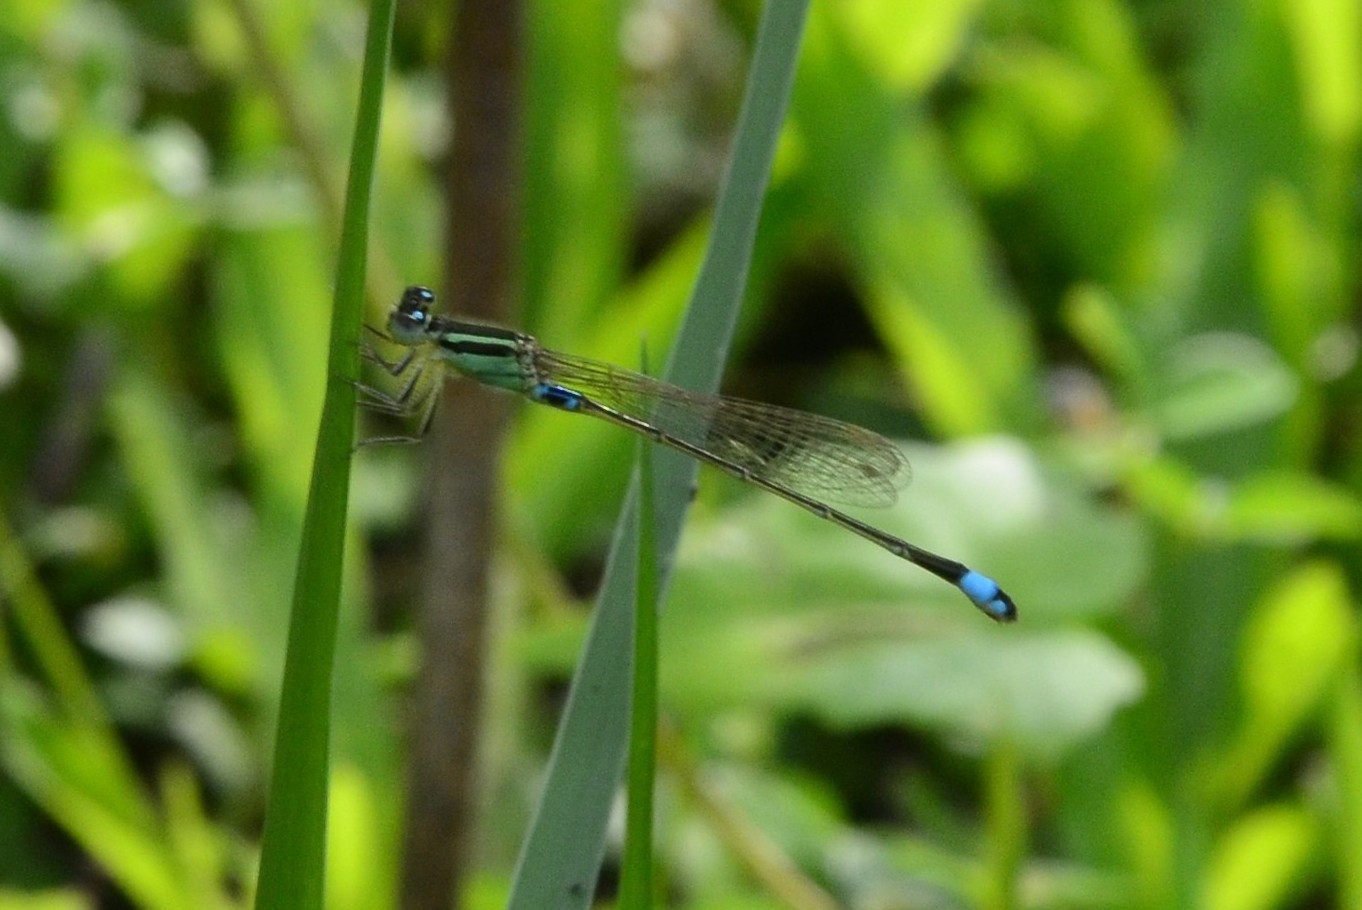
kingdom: Animalia
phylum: Arthropoda
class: Insecta
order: Odonata
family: Coenagrionidae
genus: Ischnura
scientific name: Ischnura senegalensis
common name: Tropical bluetail
